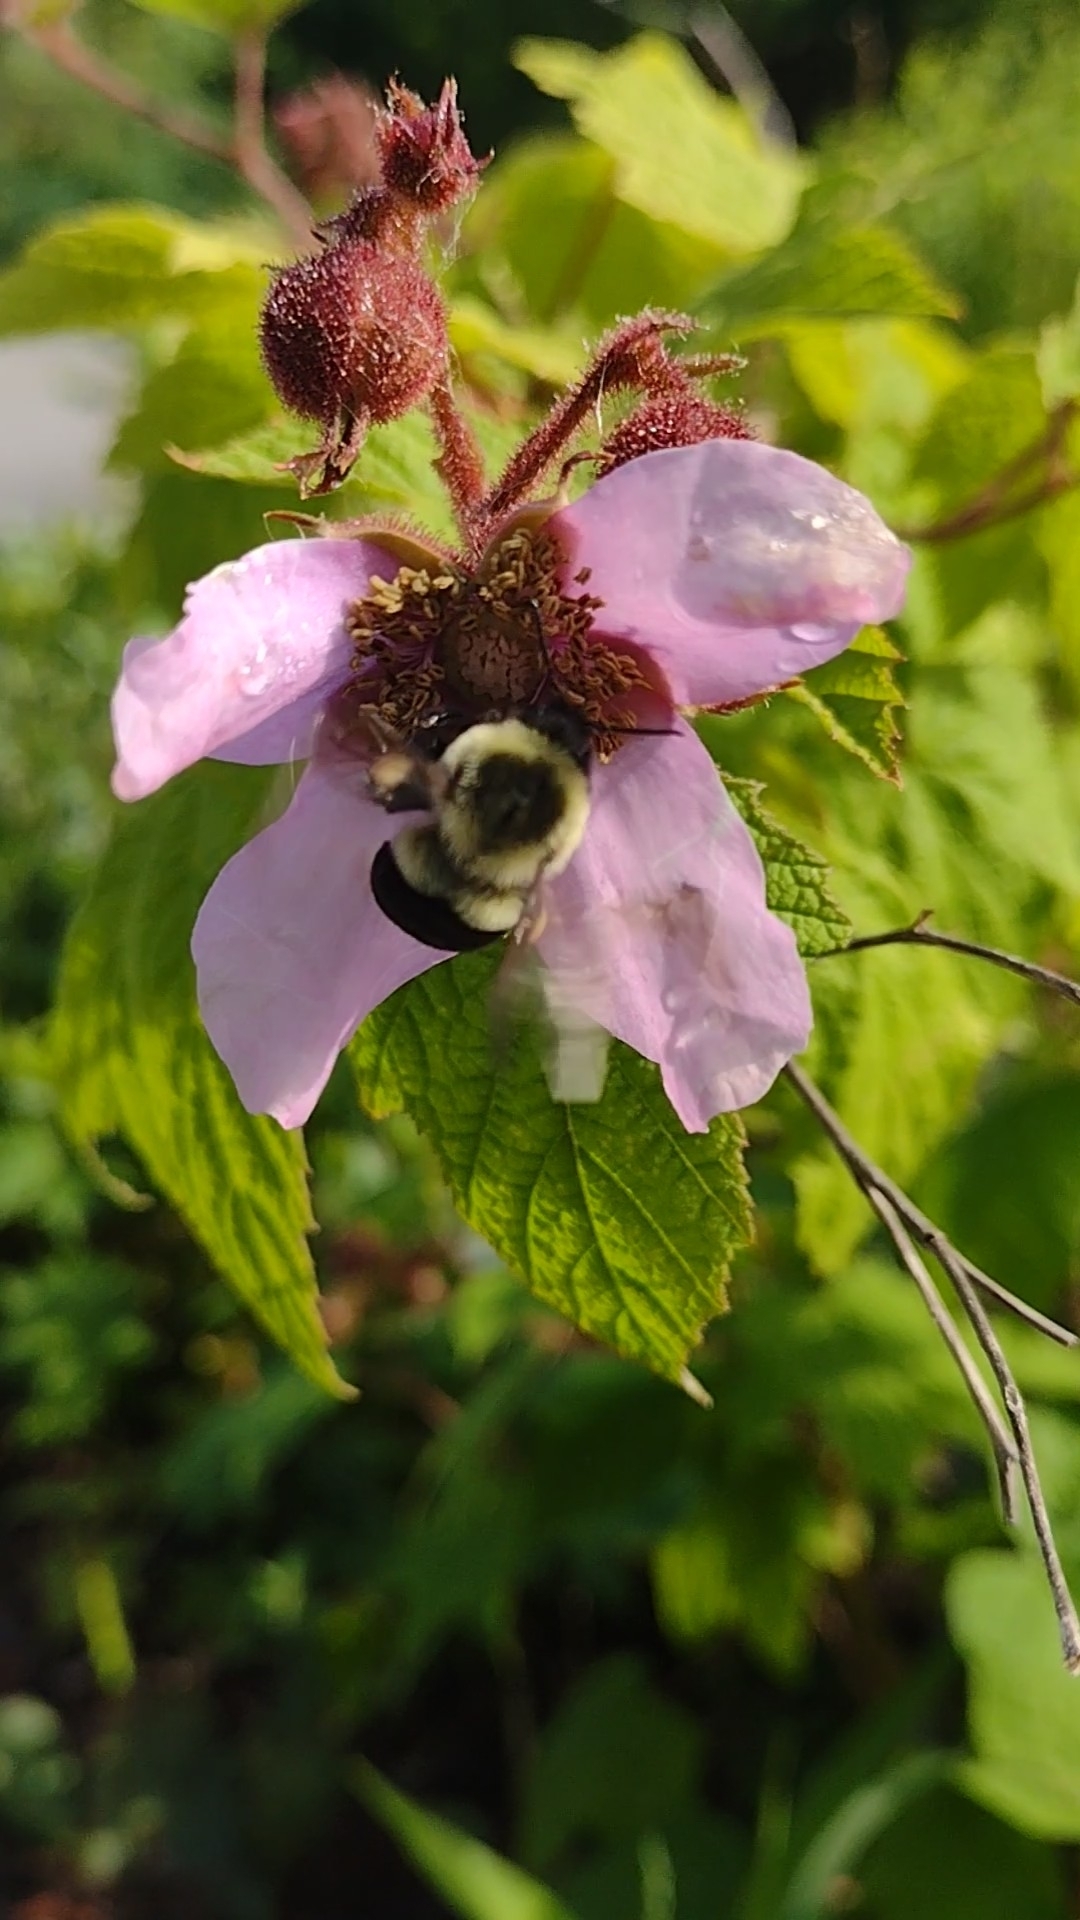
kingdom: Animalia
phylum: Arthropoda
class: Insecta
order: Hymenoptera
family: Apidae
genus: Bombus
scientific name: Bombus impatiens
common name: Common eastern bumble bee
